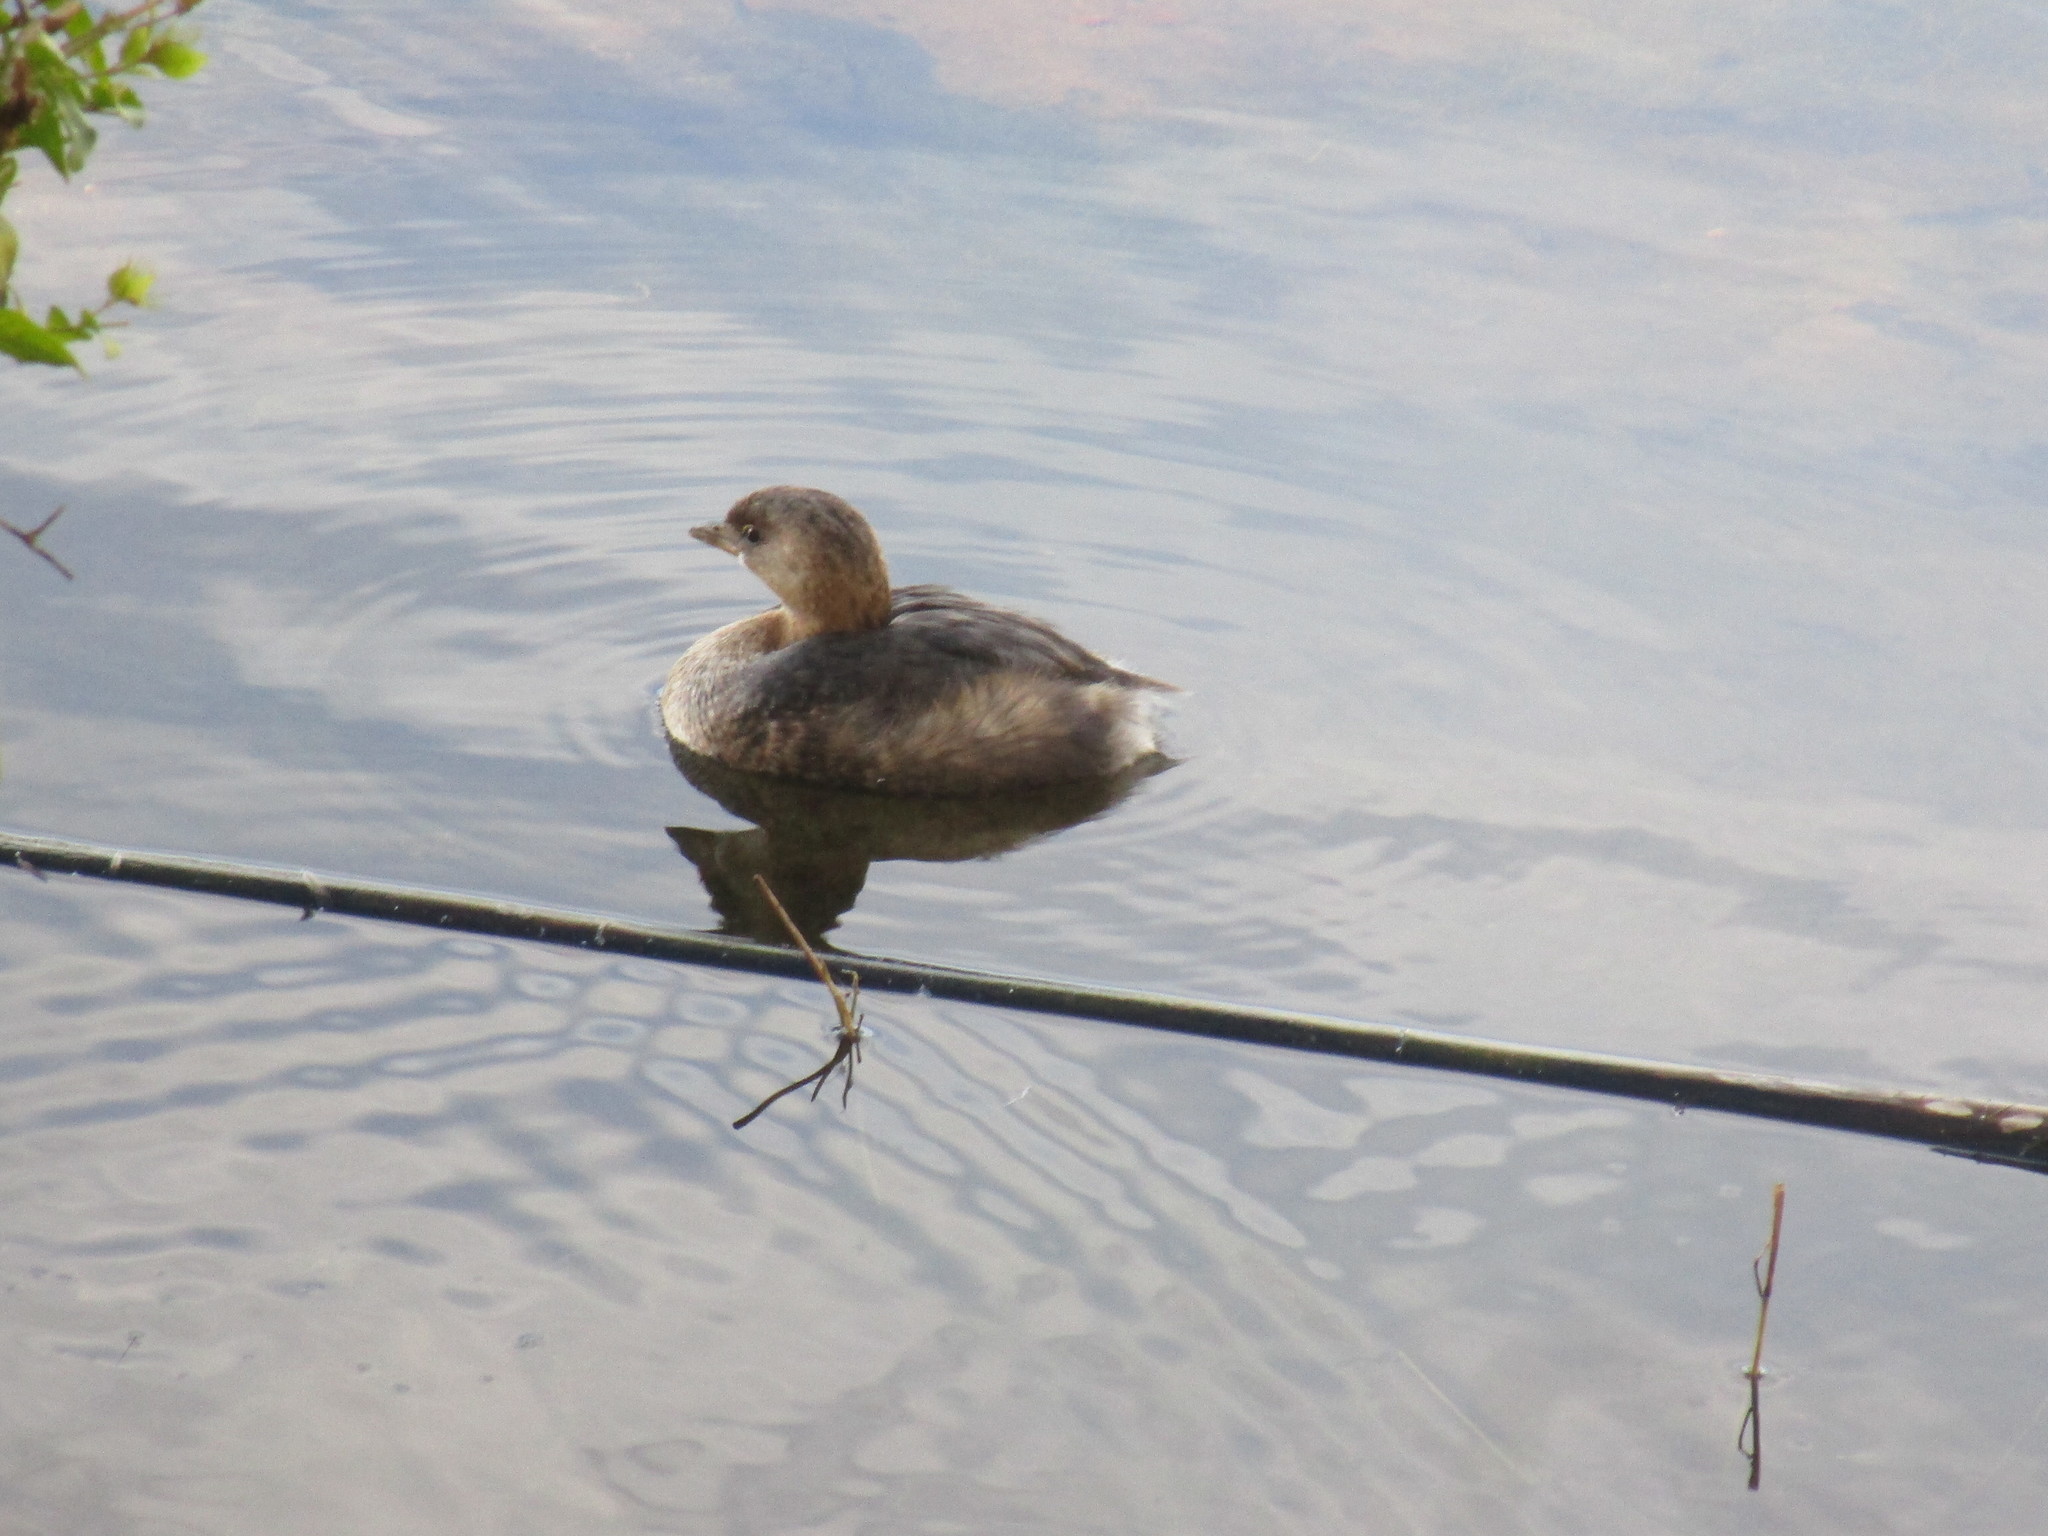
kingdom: Animalia
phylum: Chordata
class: Aves
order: Podicipediformes
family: Podicipedidae
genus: Podilymbus
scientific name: Podilymbus podiceps
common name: Pied-billed grebe
